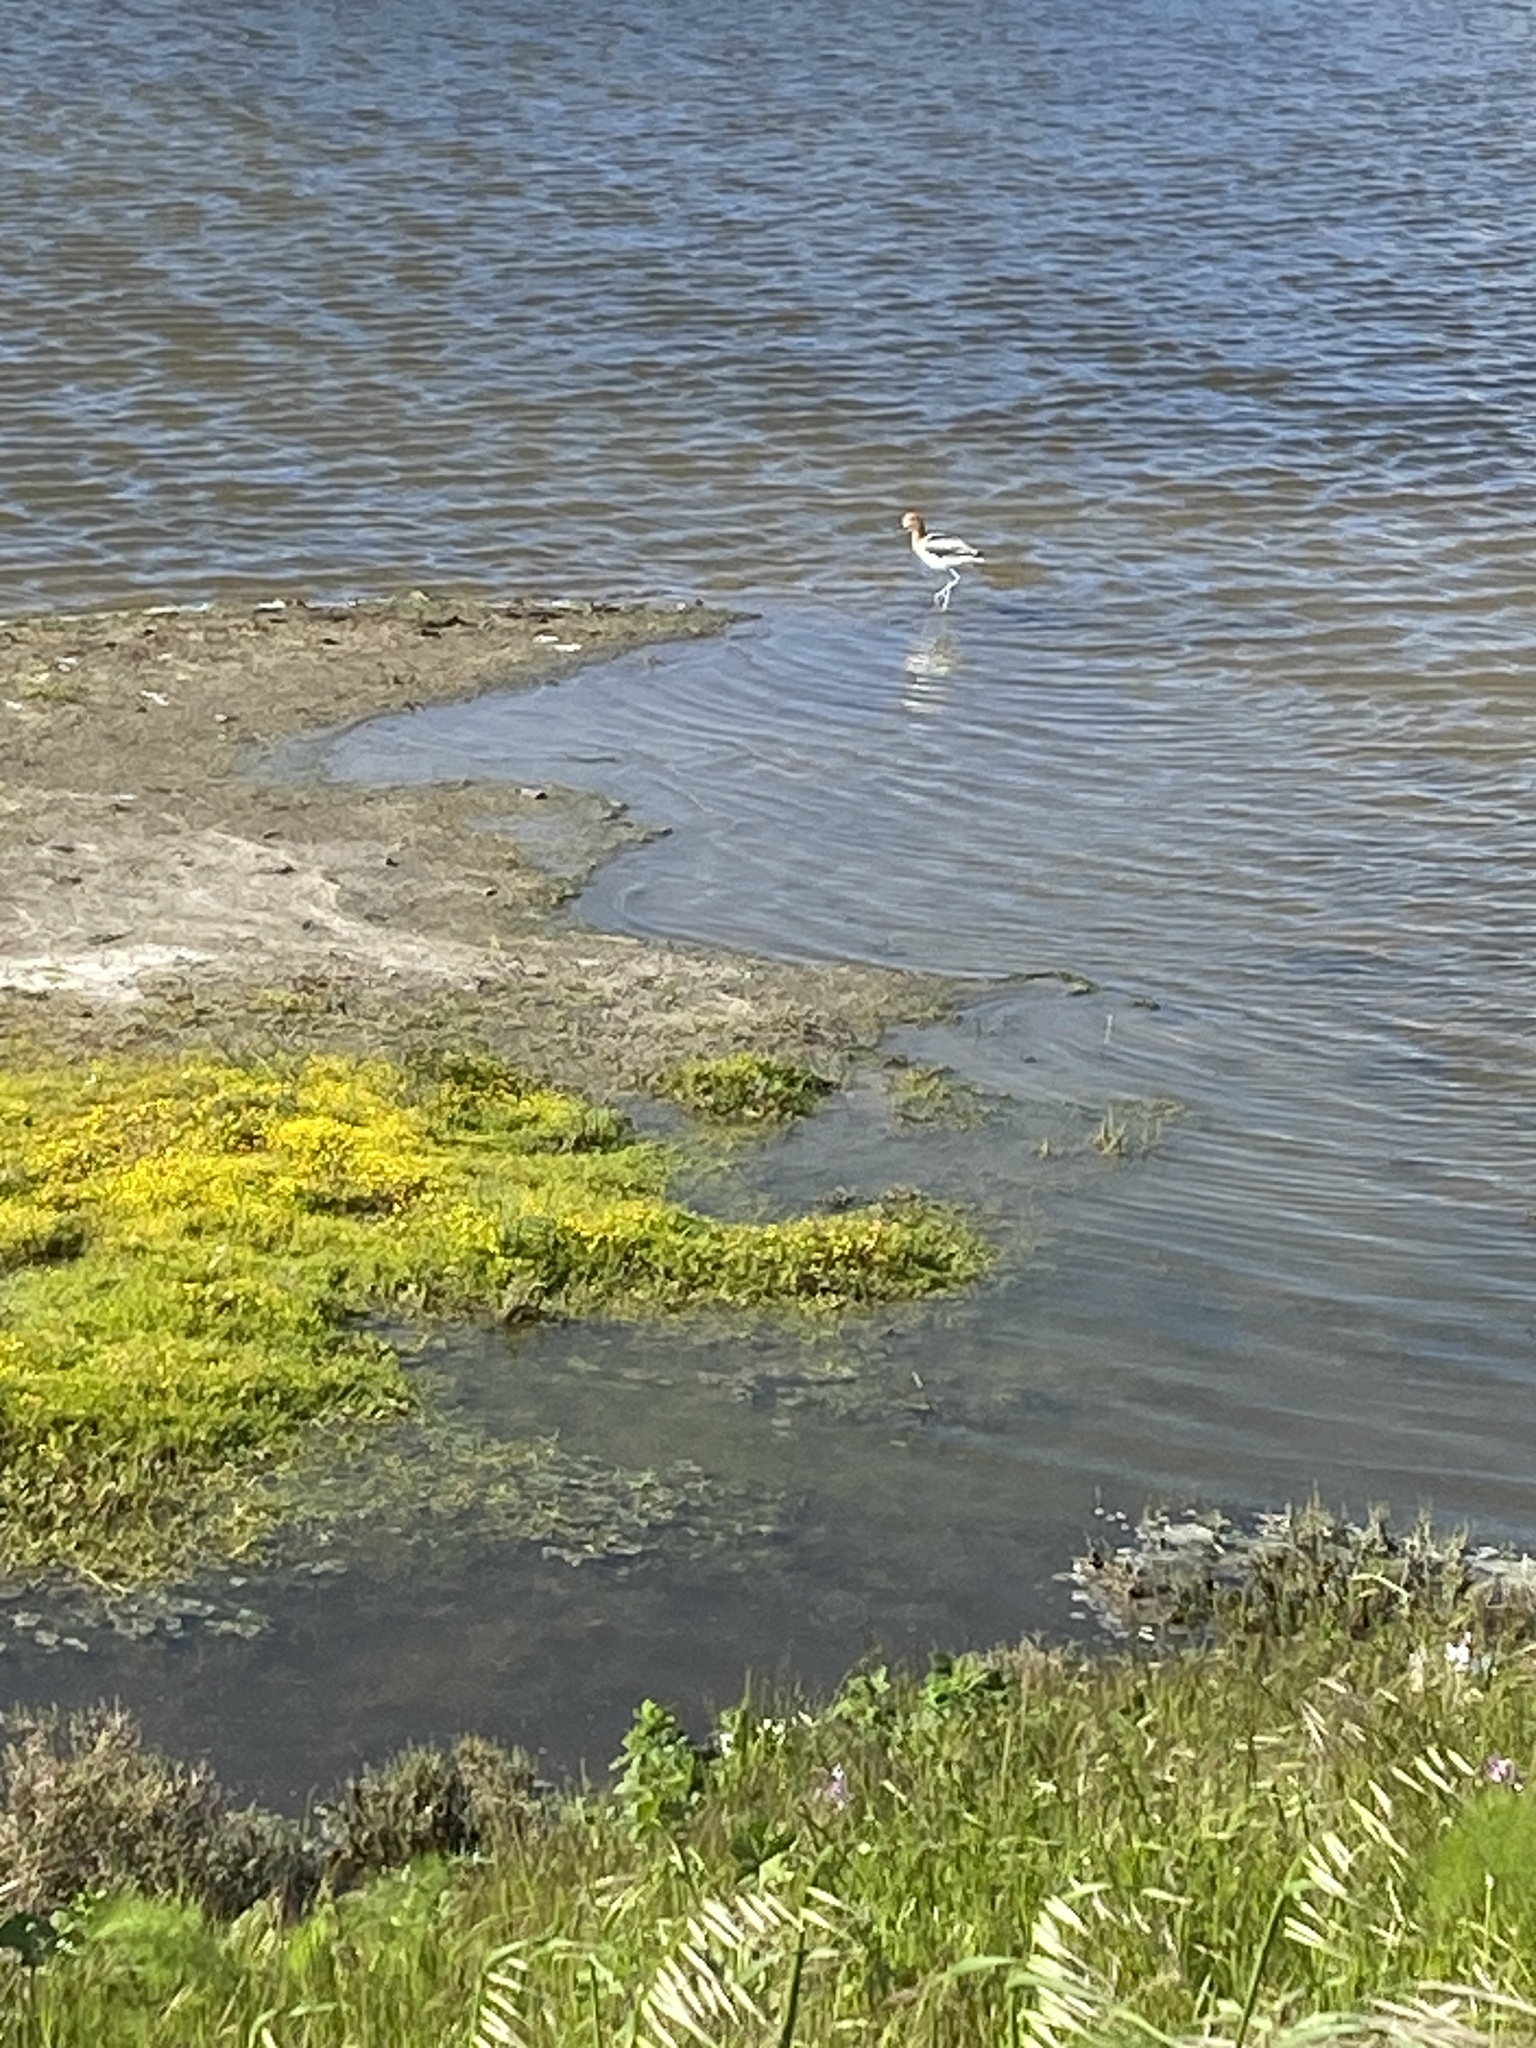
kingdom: Animalia
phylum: Chordata
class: Aves
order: Charadriiformes
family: Recurvirostridae
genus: Recurvirostra
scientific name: Recurvirostra americana
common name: American avocet
